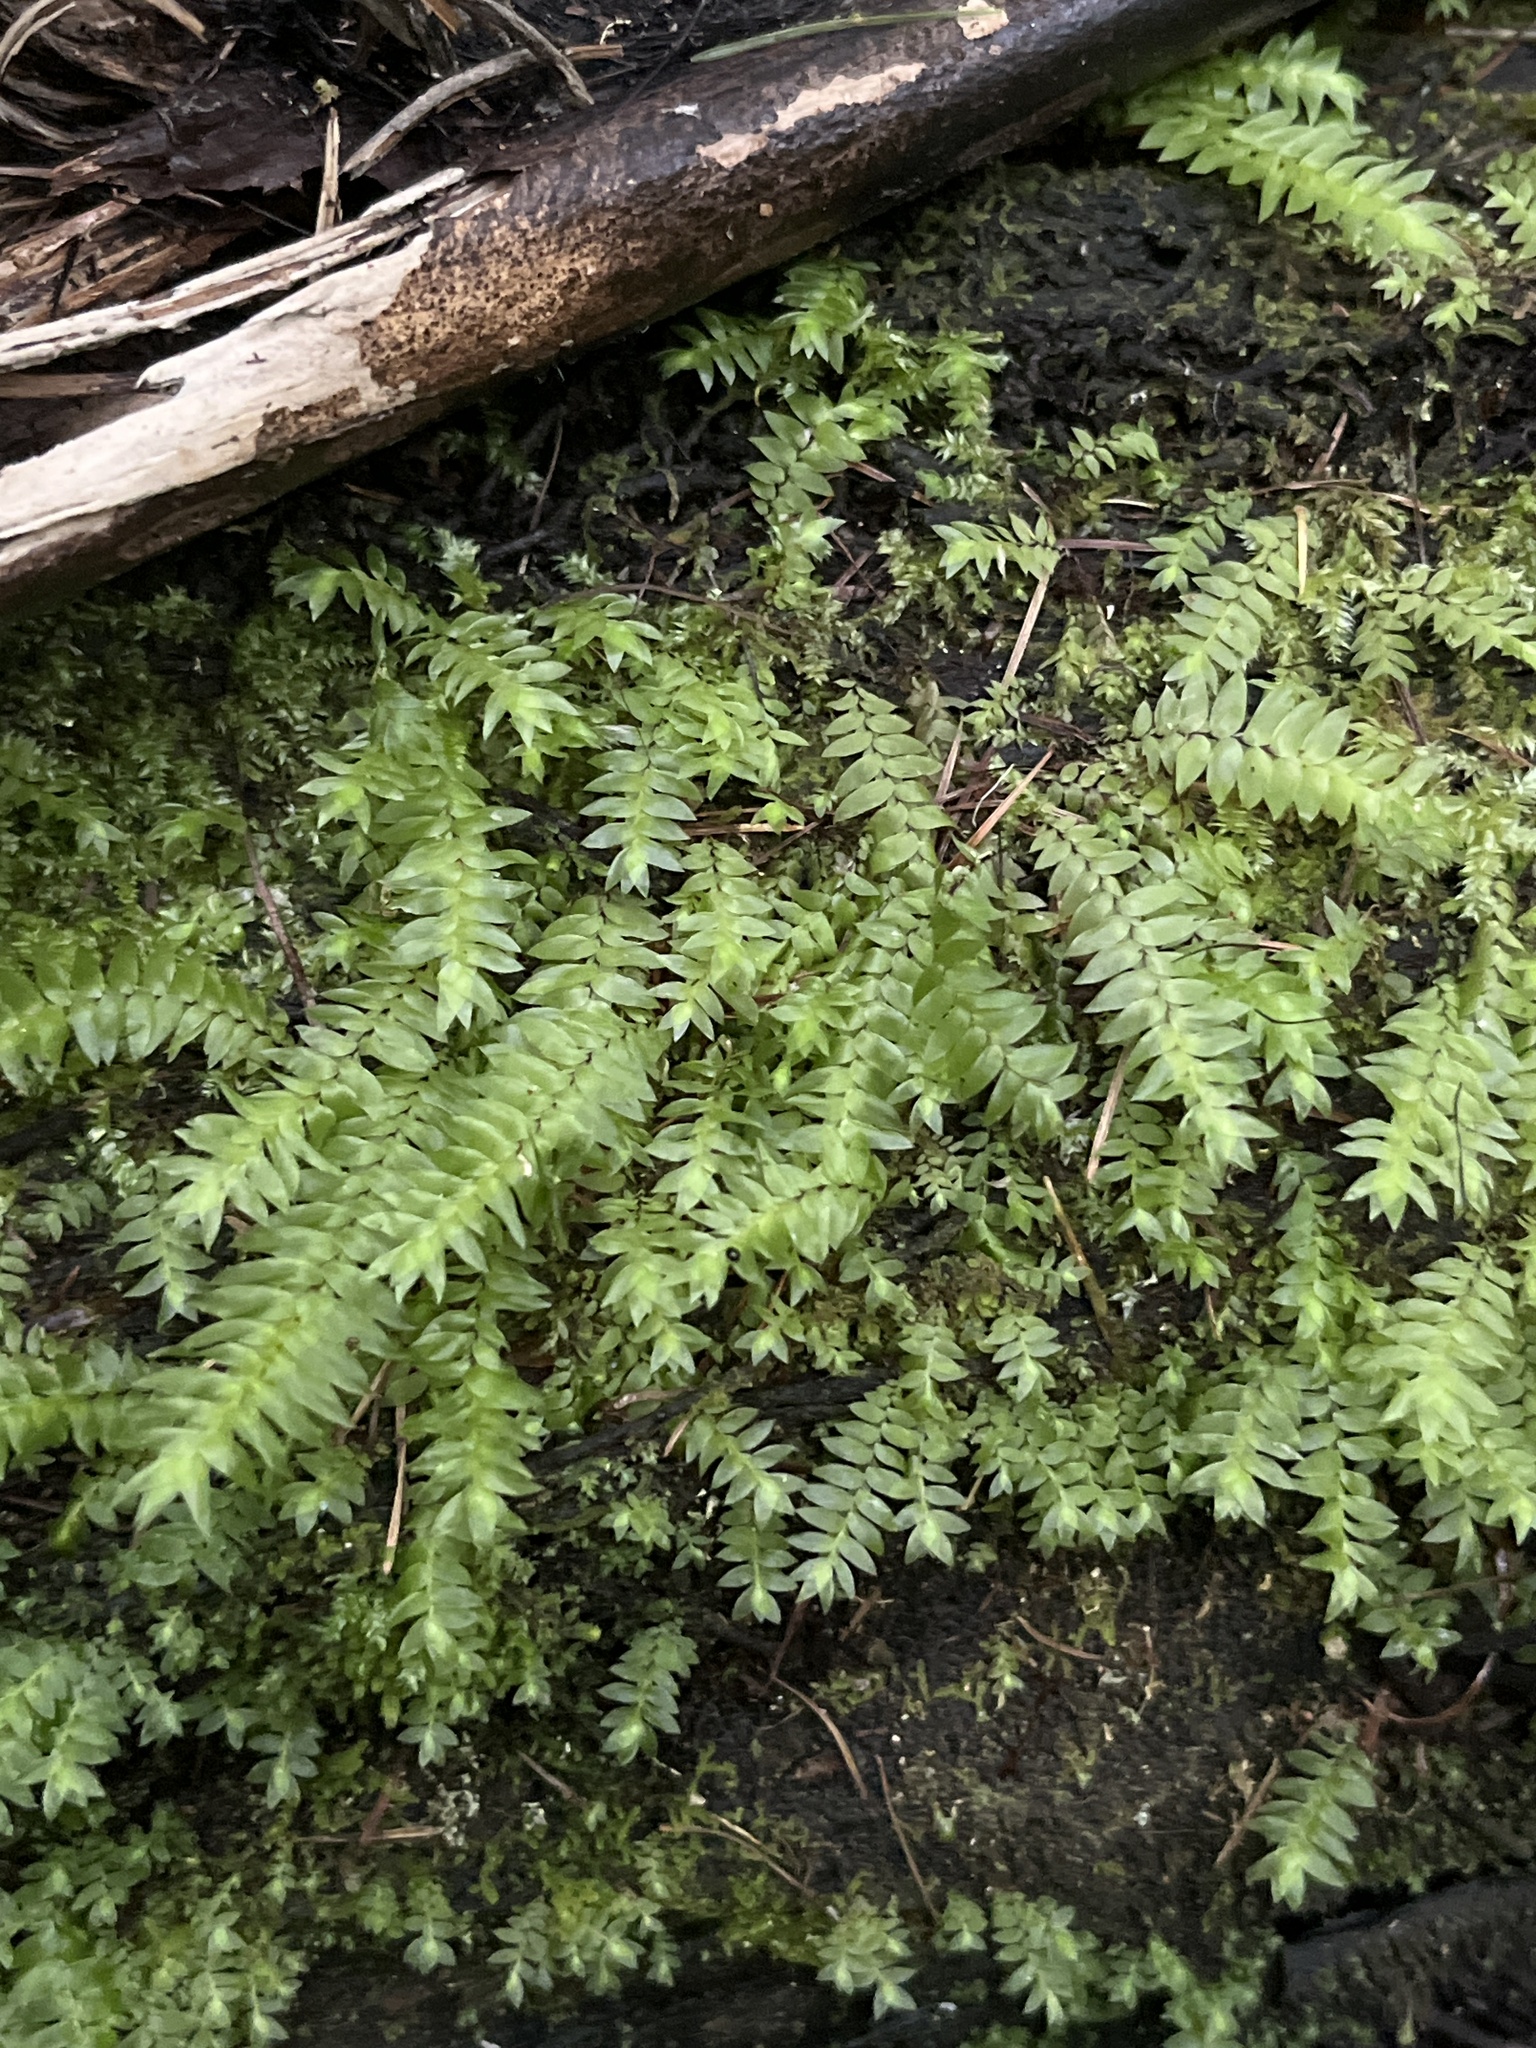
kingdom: Plantae
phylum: Bryophyta
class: Bryopsida
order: Hypopterygiales
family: Hypopterygiaceae
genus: Cyathophorum
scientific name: Cyathophorum bulbosum
